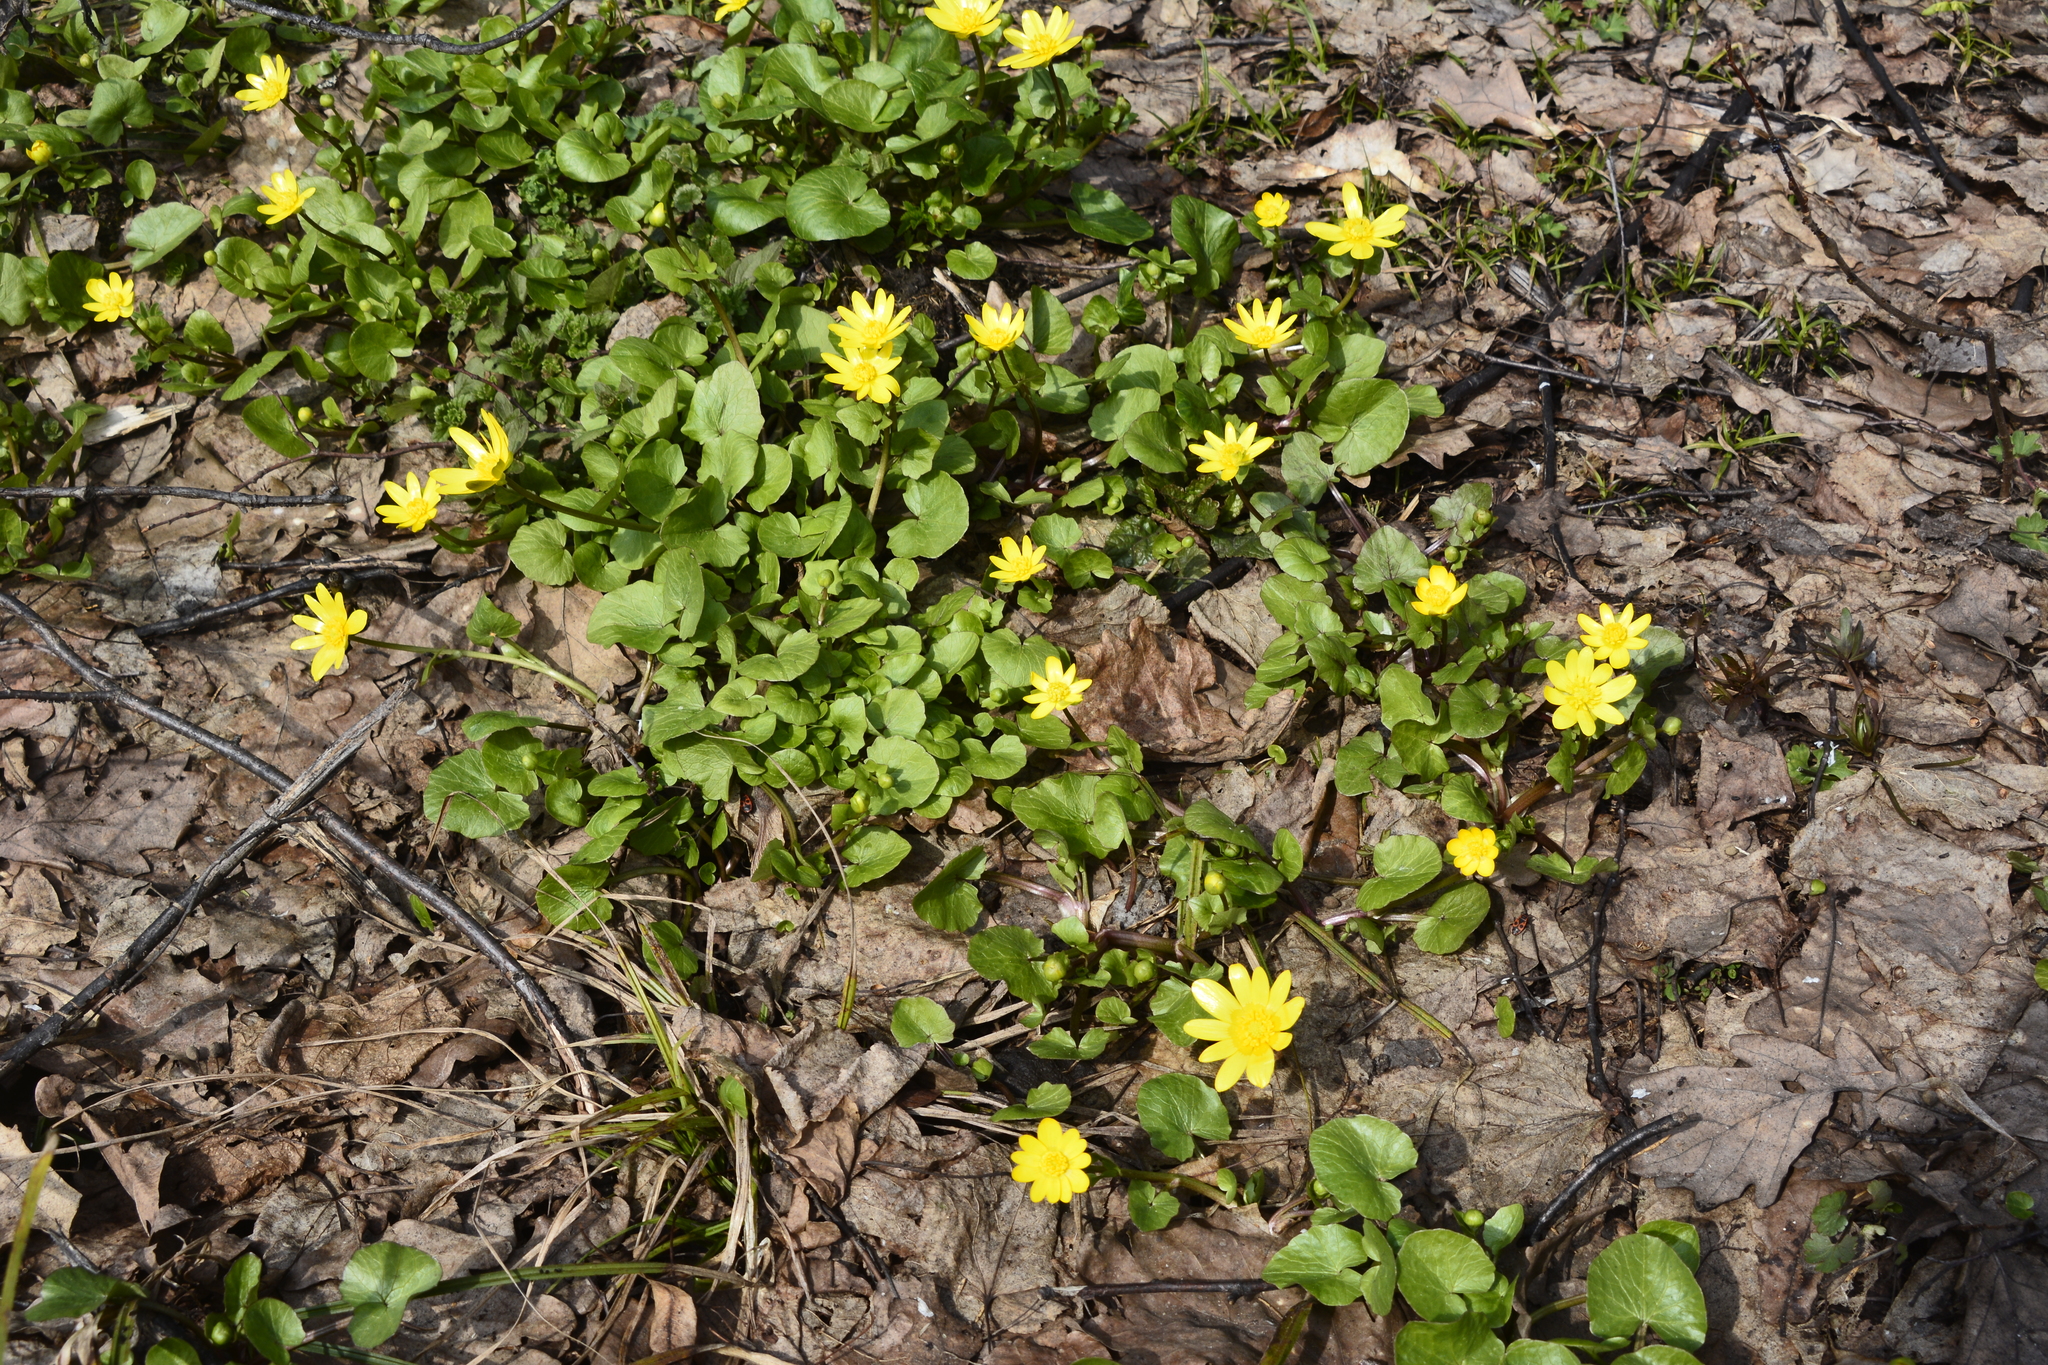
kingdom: Plantae
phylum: Tracheophyta
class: Magnoliopsida
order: Ranunculales
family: Ranunculaceae
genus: Ficaria
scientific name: Ficaria verna
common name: Lesser celandine
